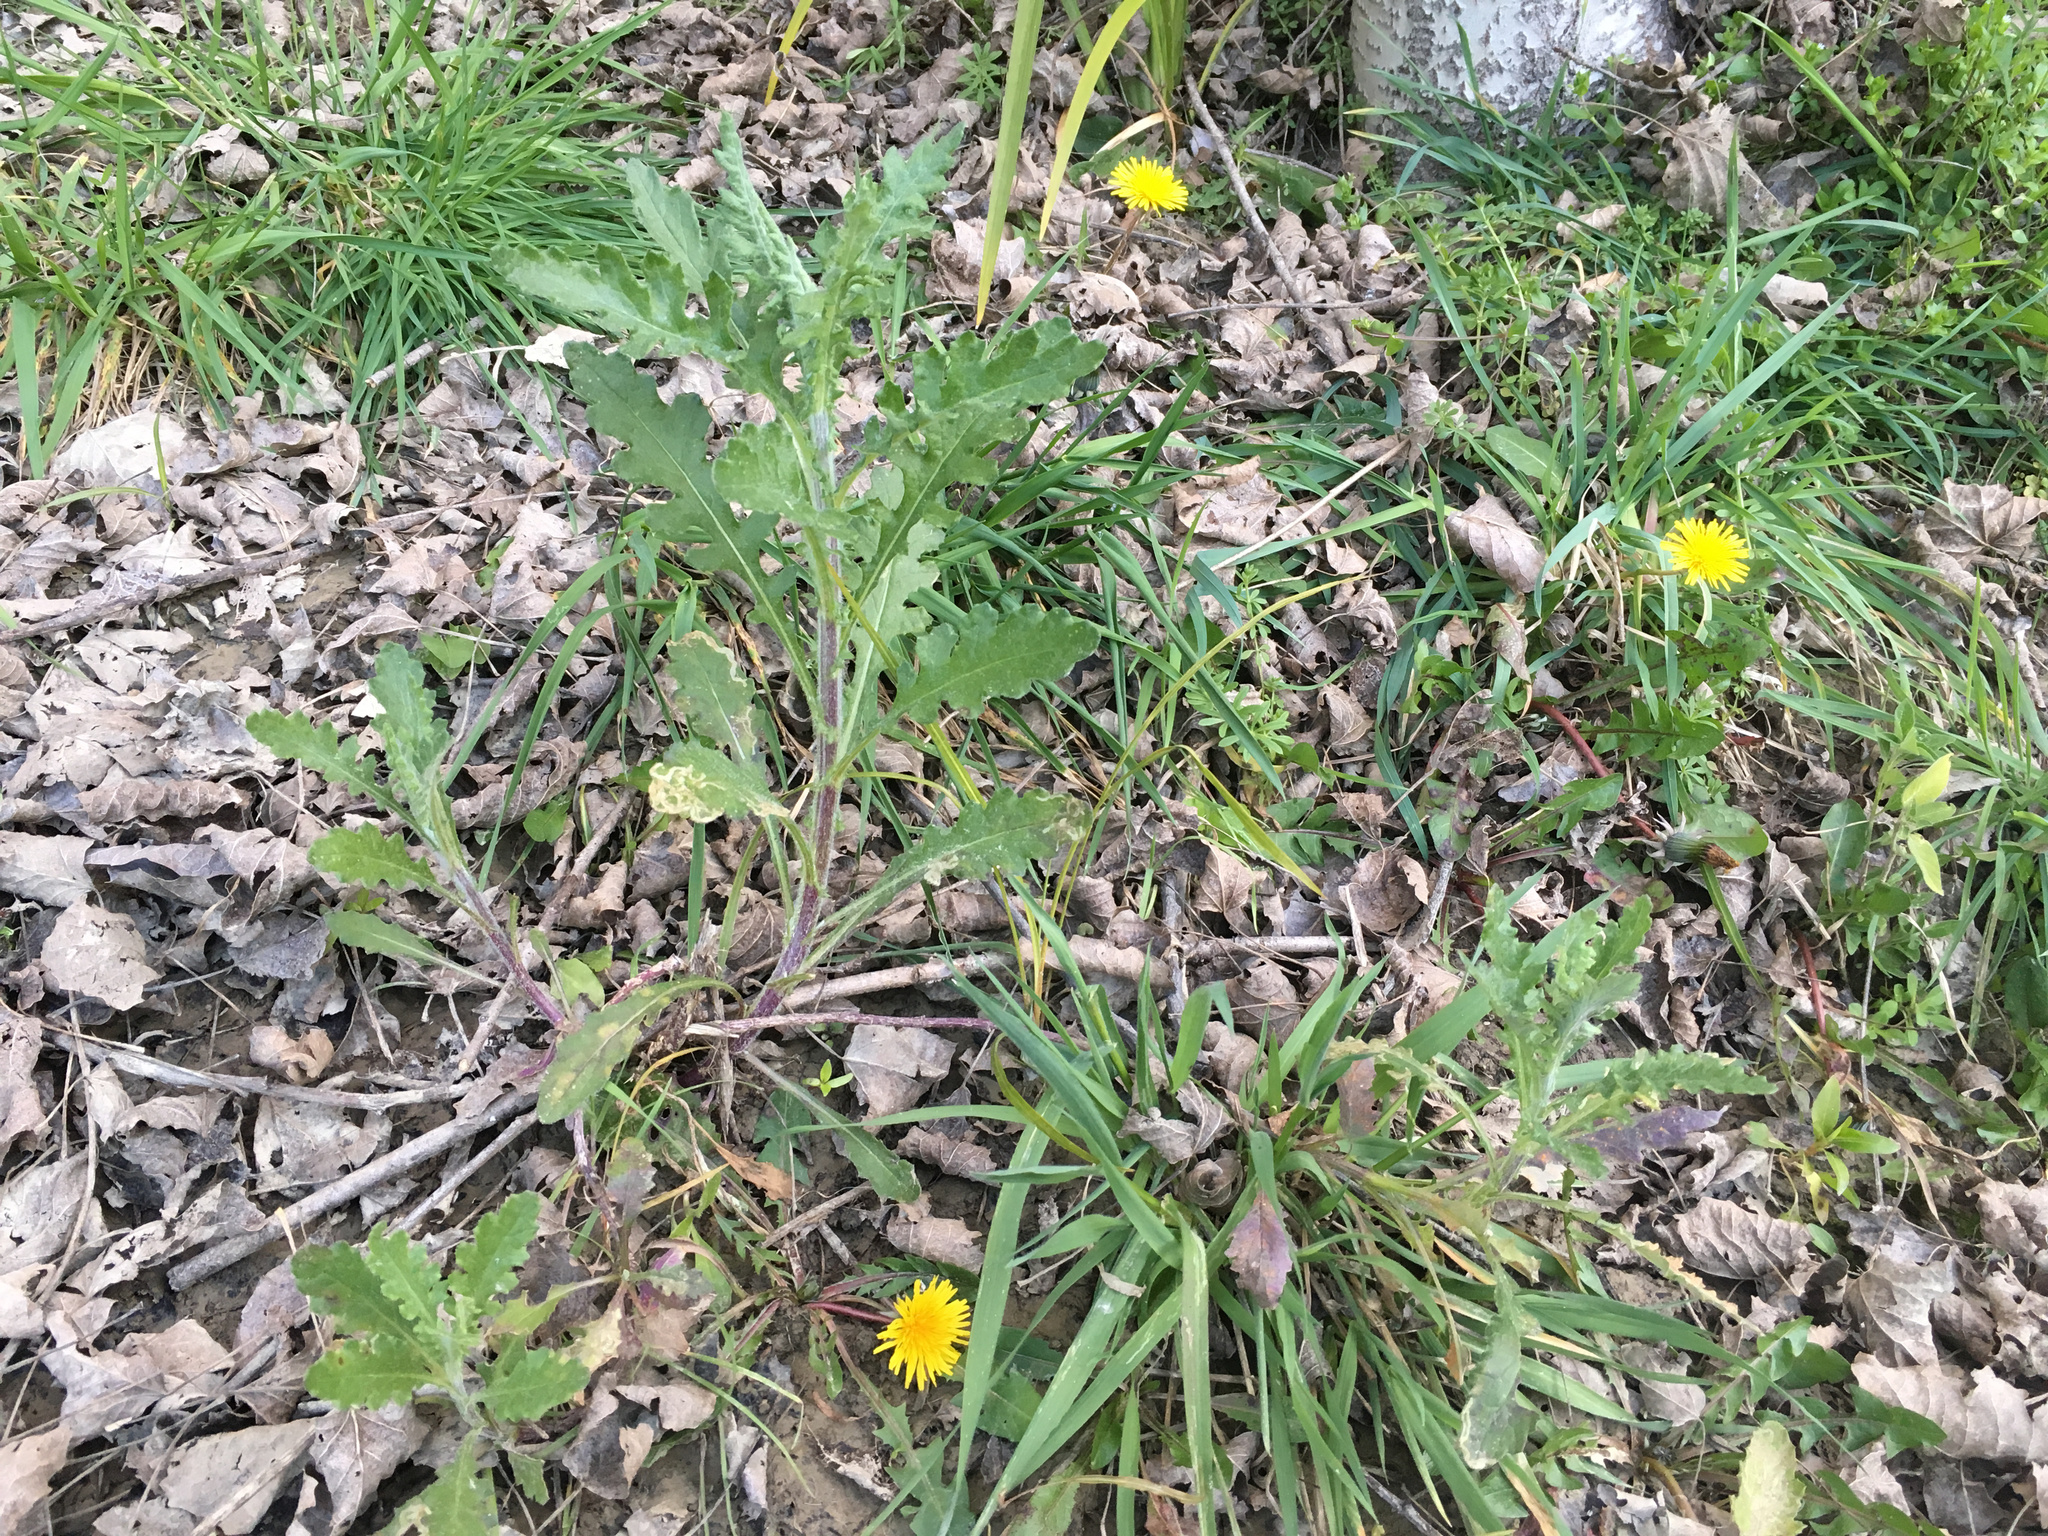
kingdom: Plantae
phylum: Tracheophyta
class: Magnoliopsida
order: Asterales
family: Asteraceae
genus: Senecio
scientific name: Senecio glomeratus
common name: Cutleaf burnweed
